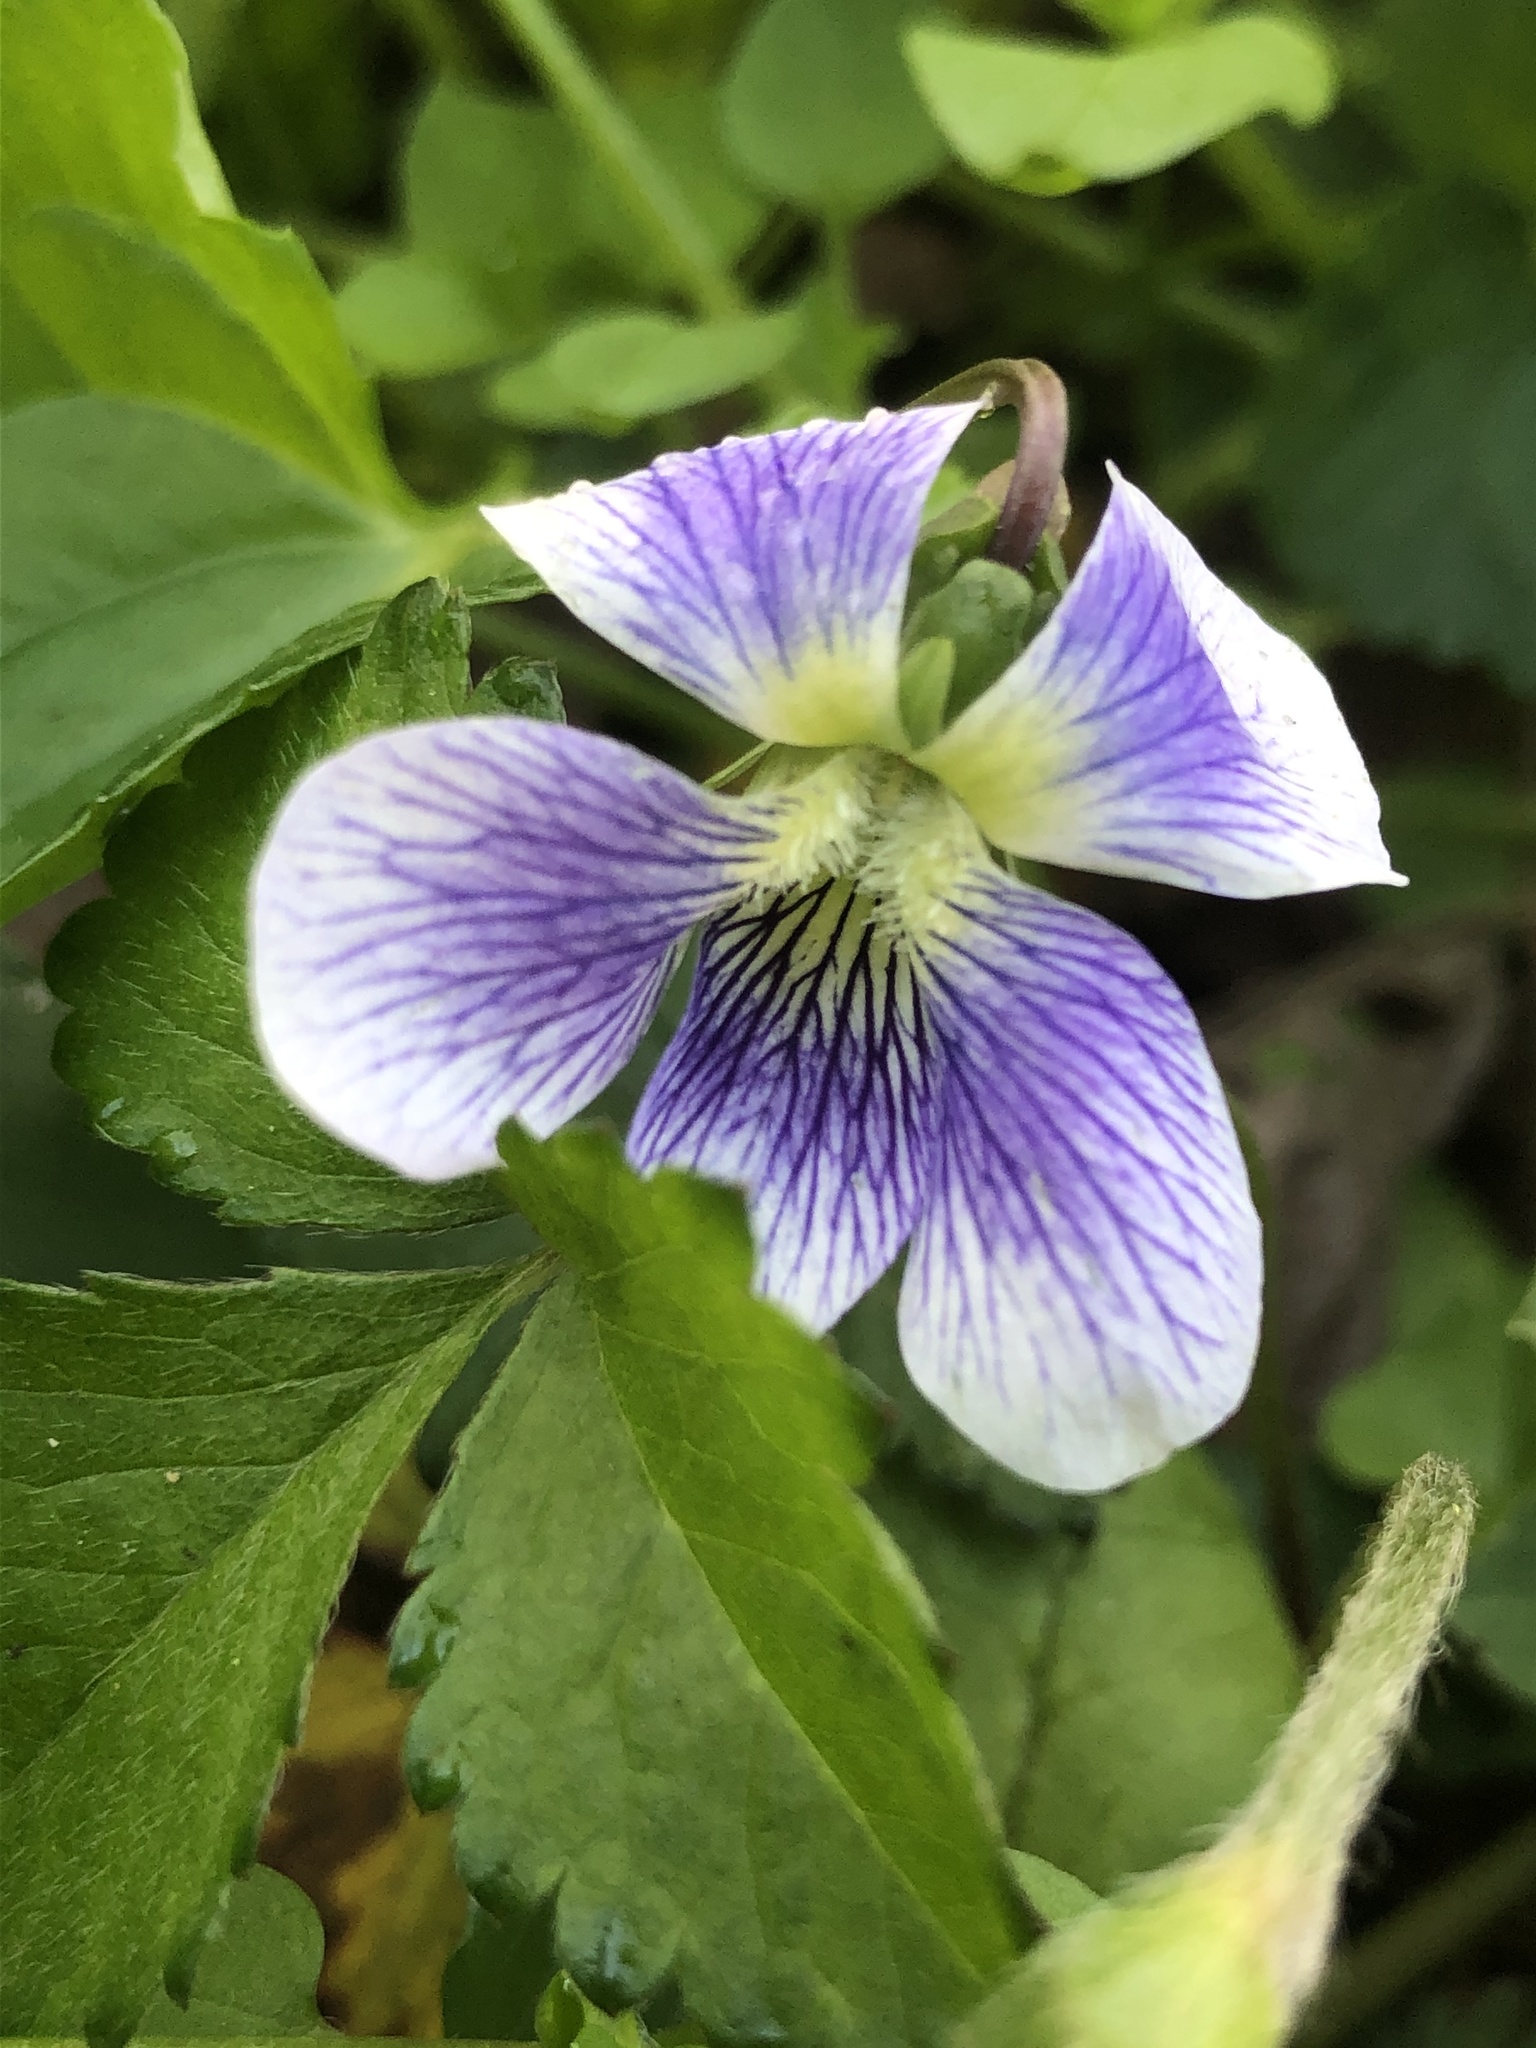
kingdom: Plantae
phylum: Tracheophyta
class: Magnoliopsida
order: Malpighiales
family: Violaceae
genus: Viola
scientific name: Viola sororia
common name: Dooryard violet
